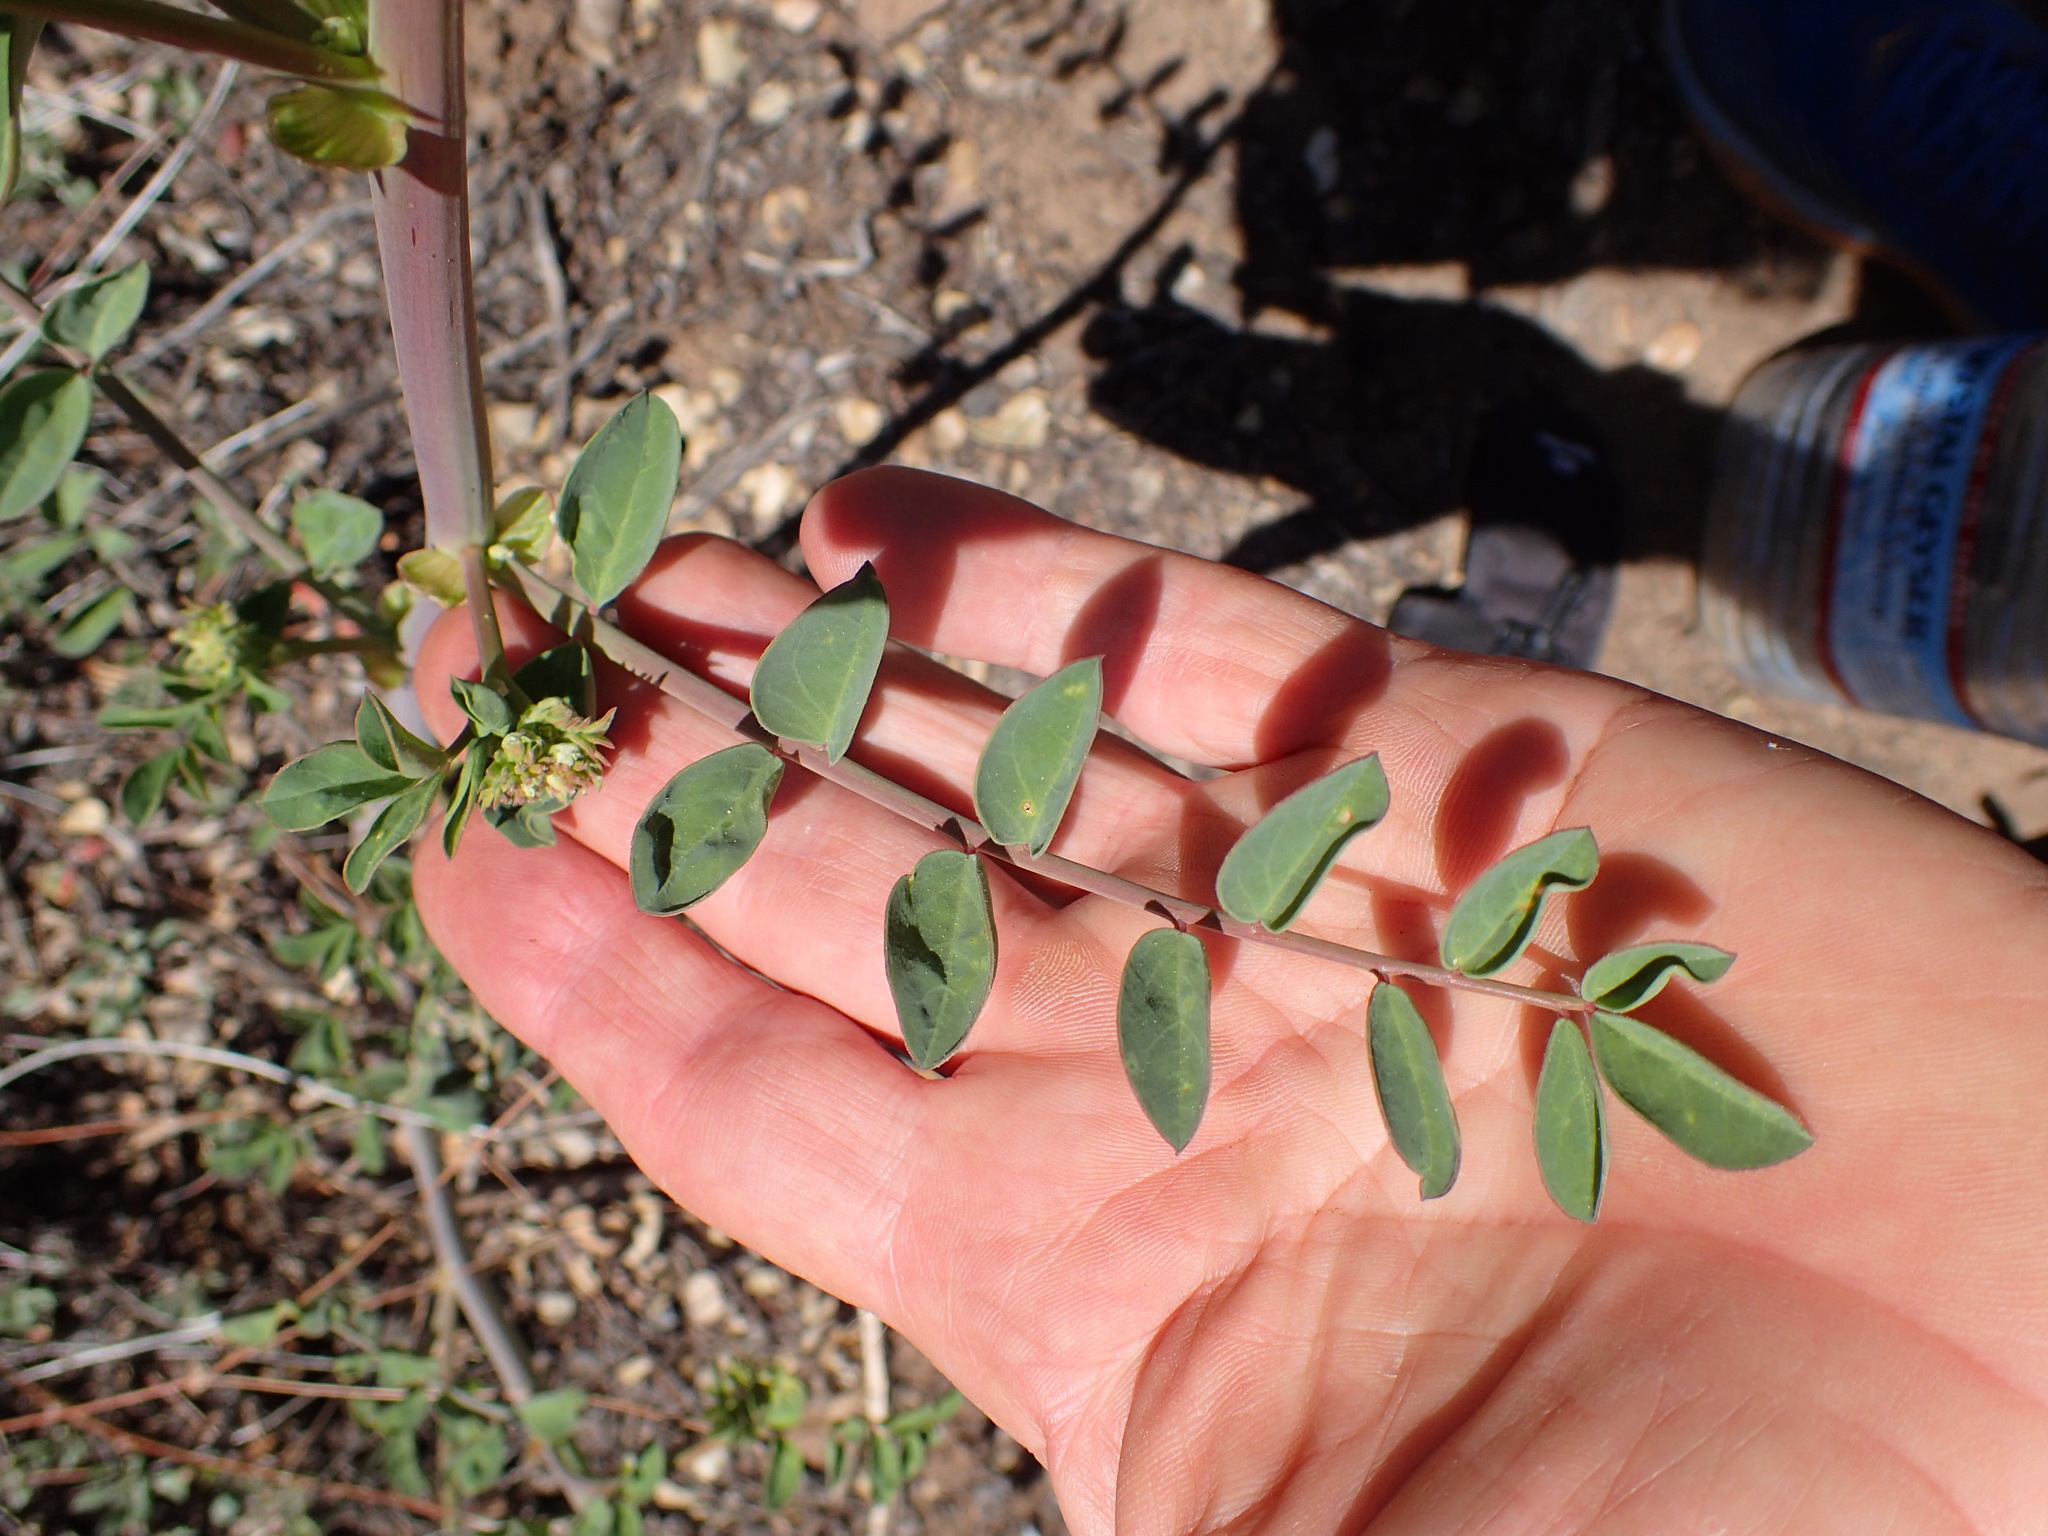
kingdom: Plantae
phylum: Tracheophyta
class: Magnoliopsida
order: Fabales
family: Fabaceae
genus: Hosackia
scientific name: Hosackia crassifolia
